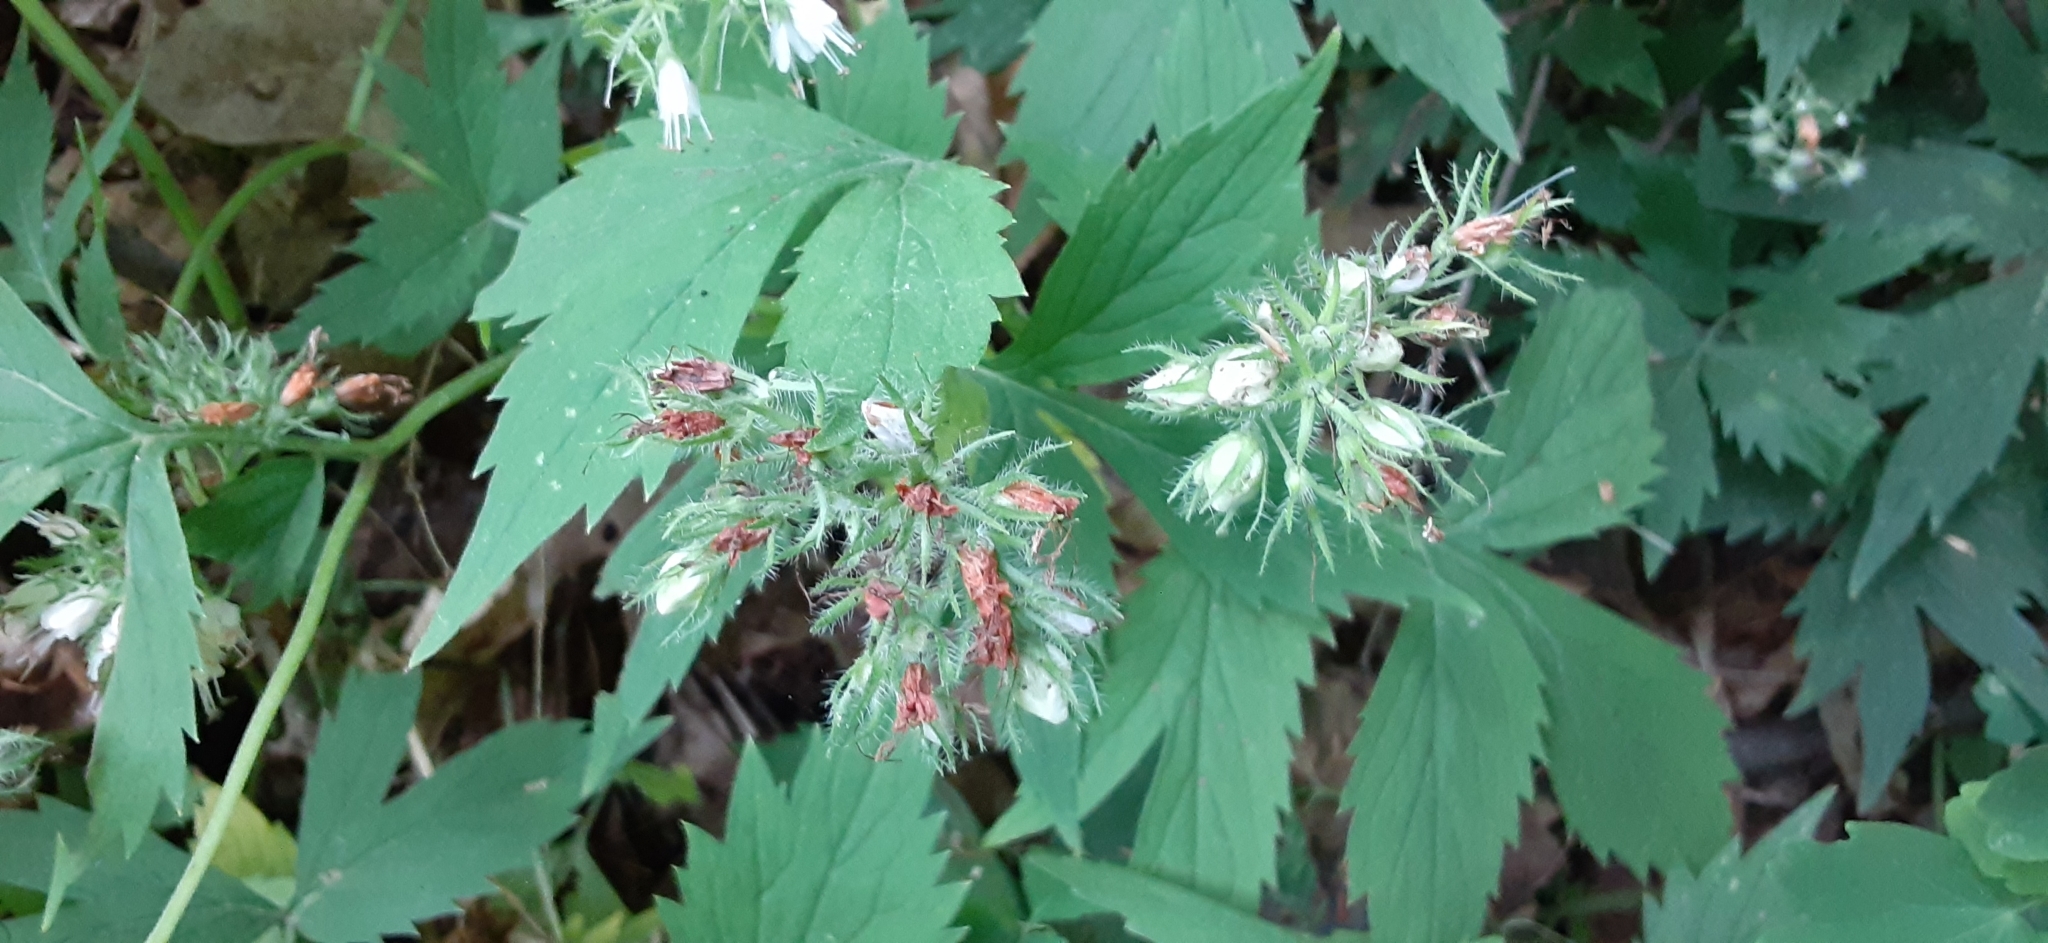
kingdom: Plantae
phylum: Tracheophyta
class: Magnoliopsida
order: Boraginales
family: Hydrophyllaceae
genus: Hydrophyllum
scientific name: Hydrophyllum virginianum
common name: Virginia waterleaf
